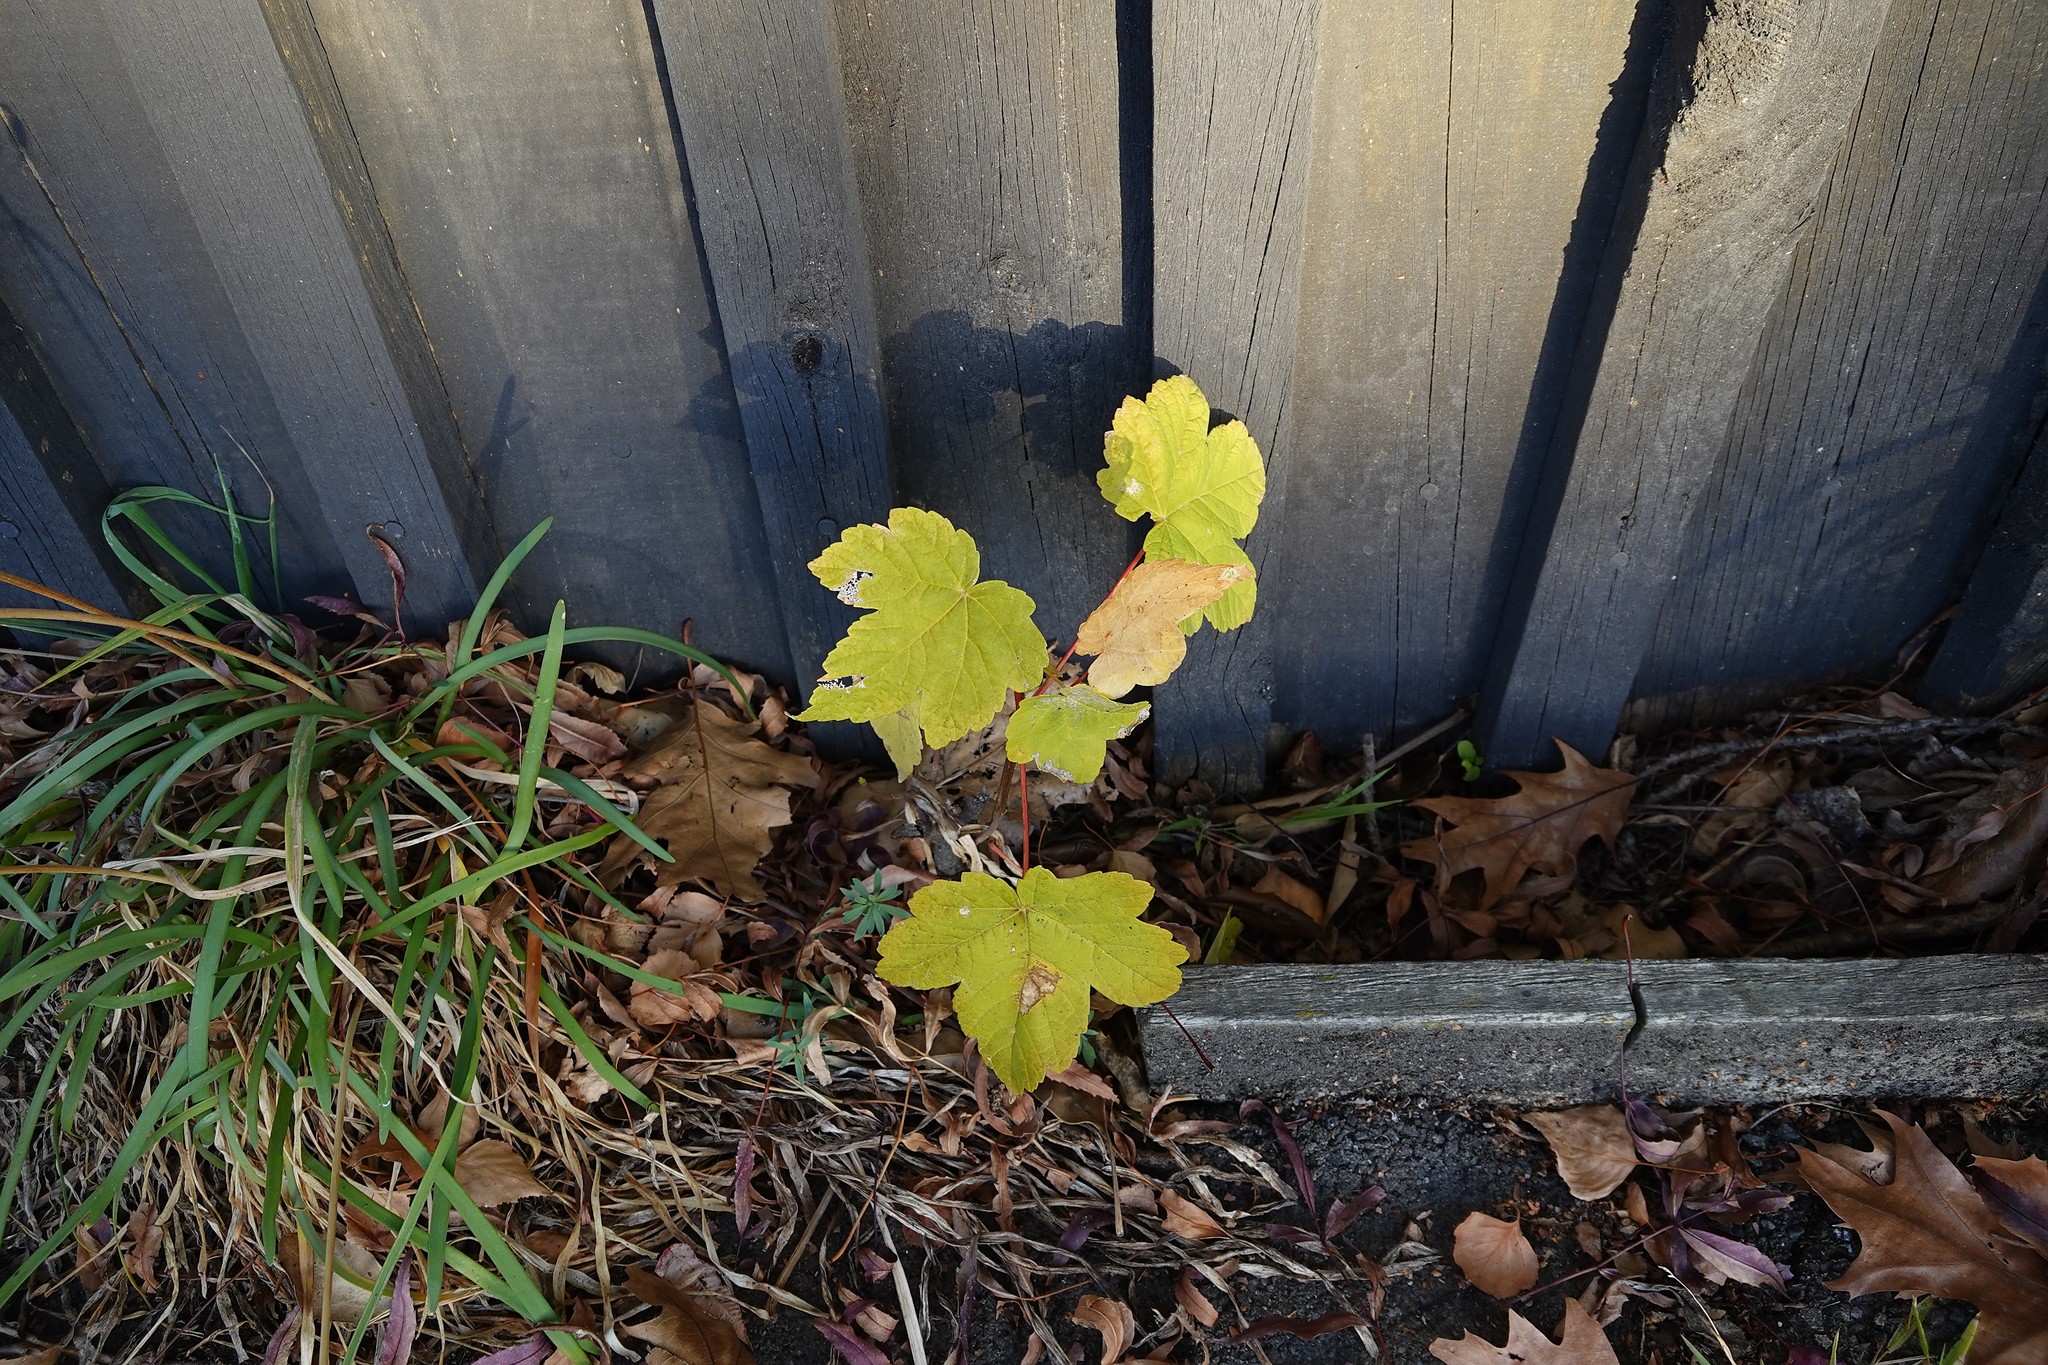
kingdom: Plantae
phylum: Tracheophyta
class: Magnoliopsida
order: Sapindales
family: Sapindaceae
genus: Acer
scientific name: Acer pseudoplatanus
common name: Sycamore
